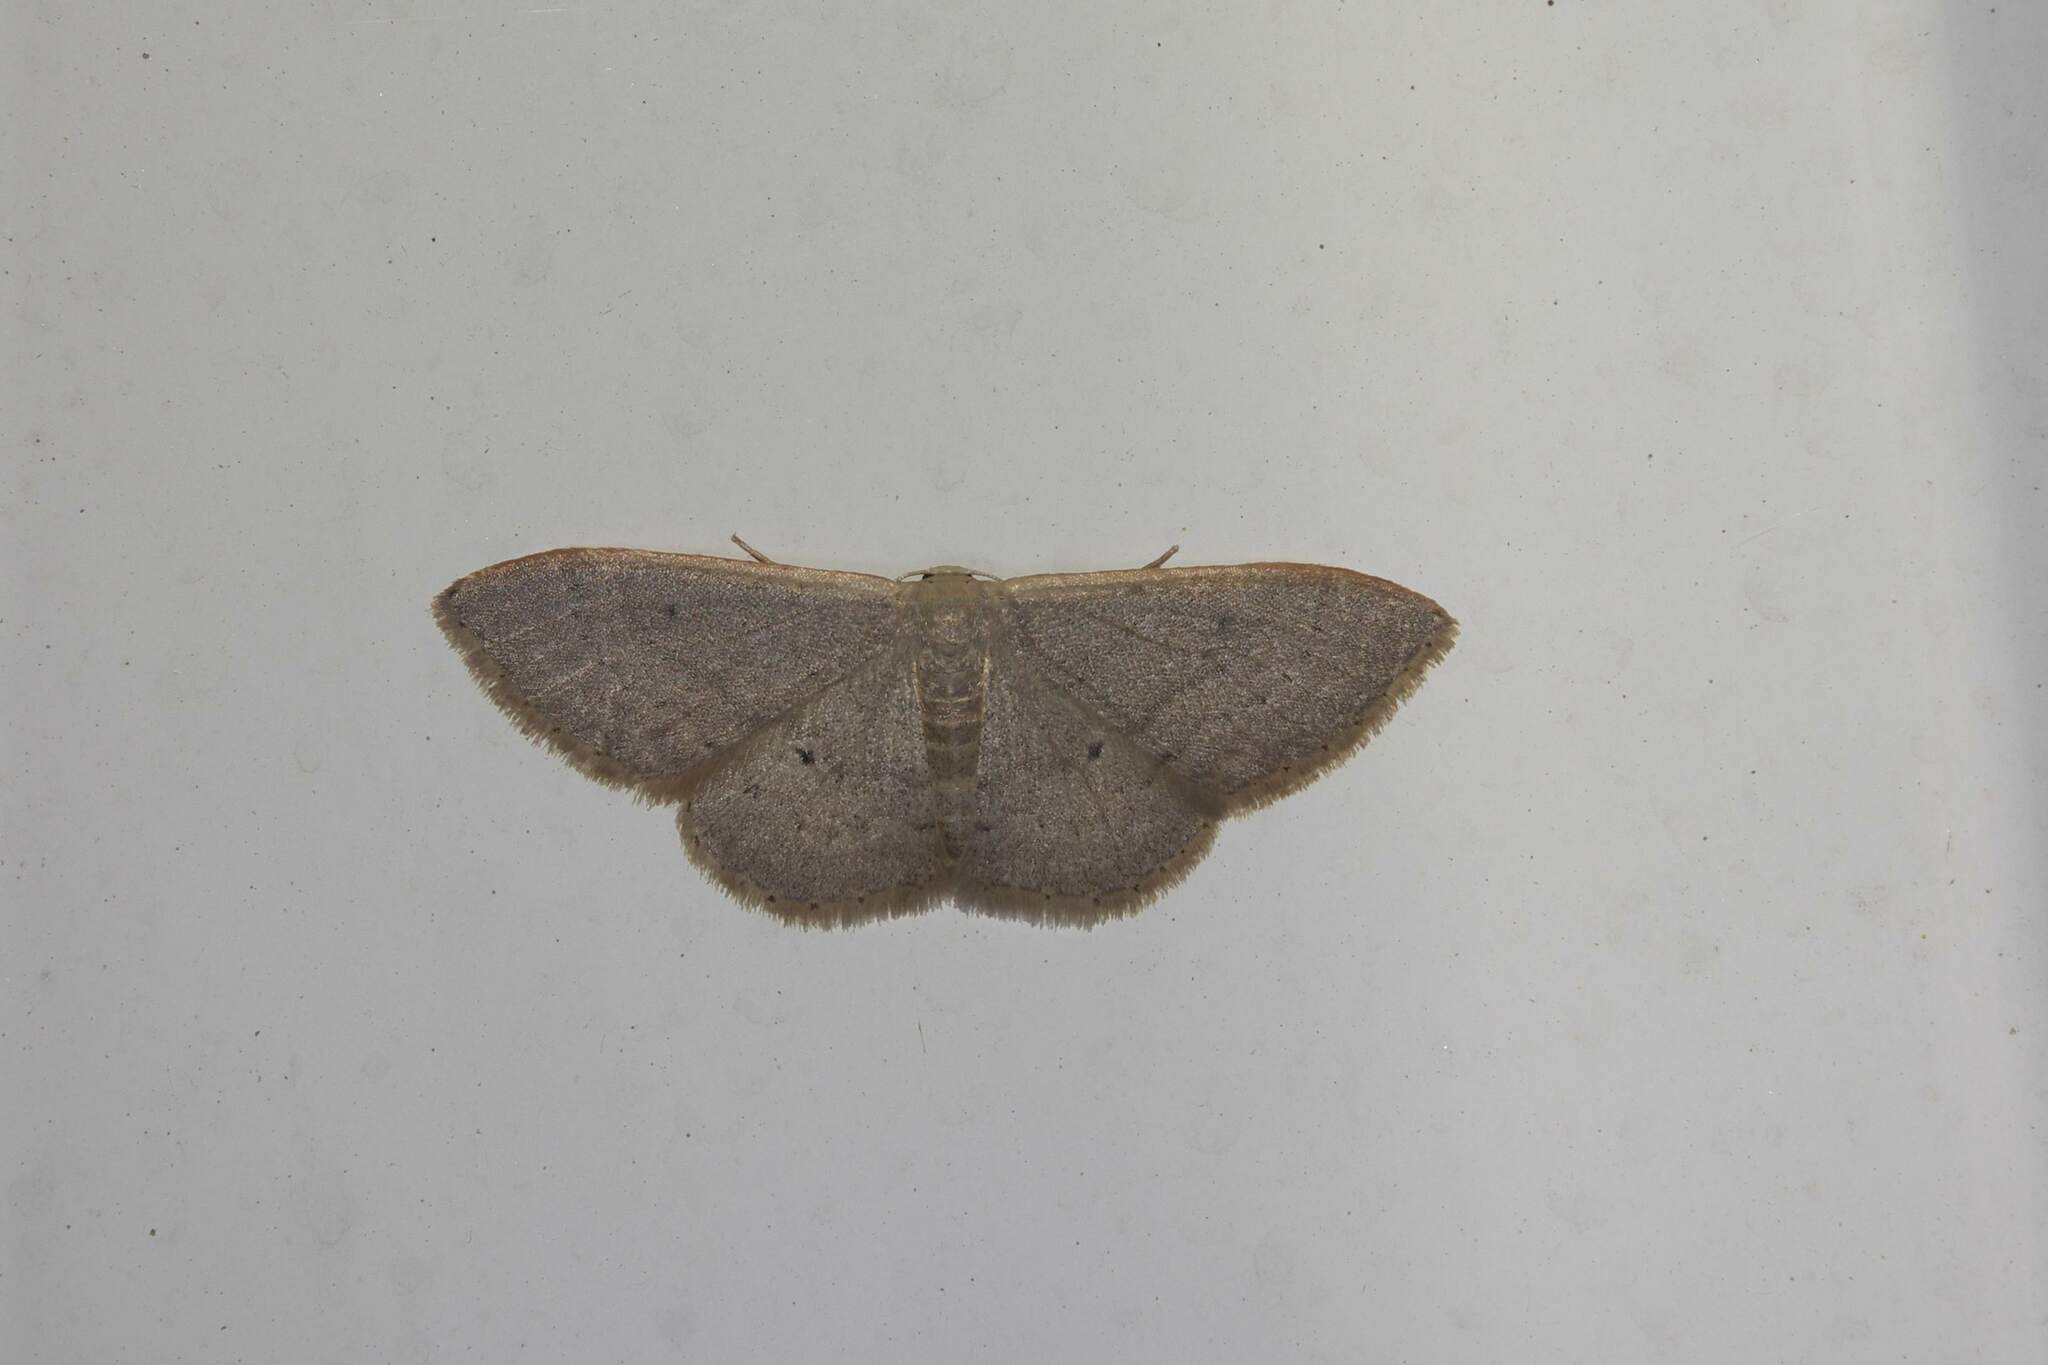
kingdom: Animalia
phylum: Arthropoda
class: Insecta
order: Lepidoptera
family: Geometridae
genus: Idaea
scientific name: Idaea distinctaria
